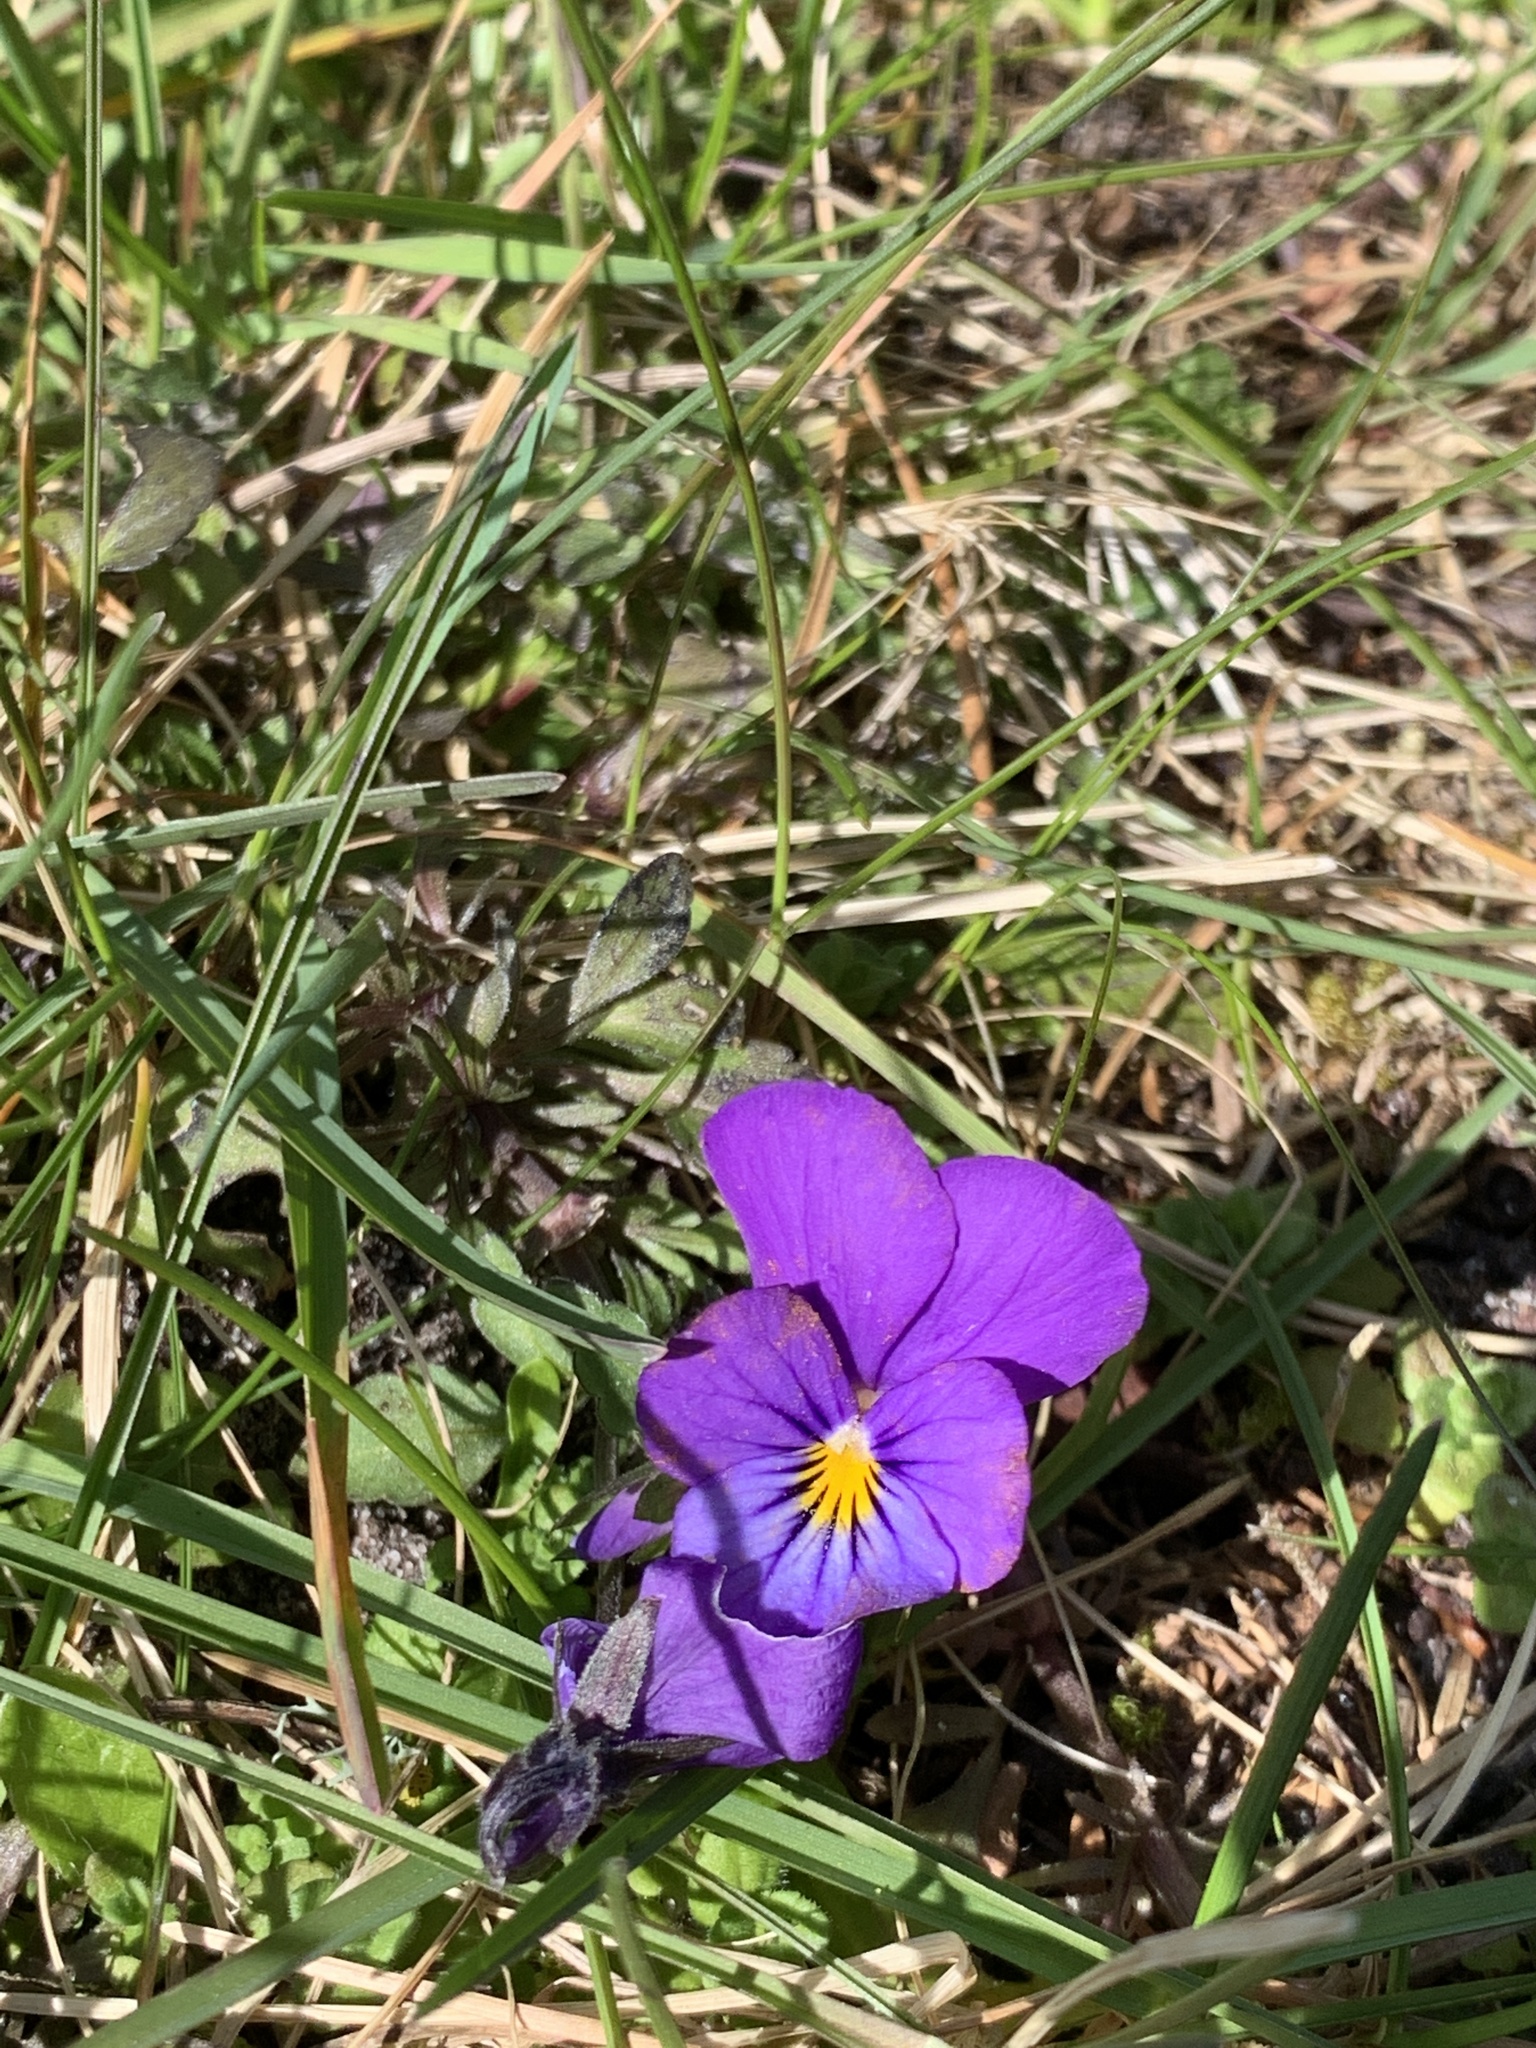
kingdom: Plantae
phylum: Tracheophyta
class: Magnoliopsida
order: Malpighiales
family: Violaceae
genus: Viola
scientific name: Viola tricolor
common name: Pansy
